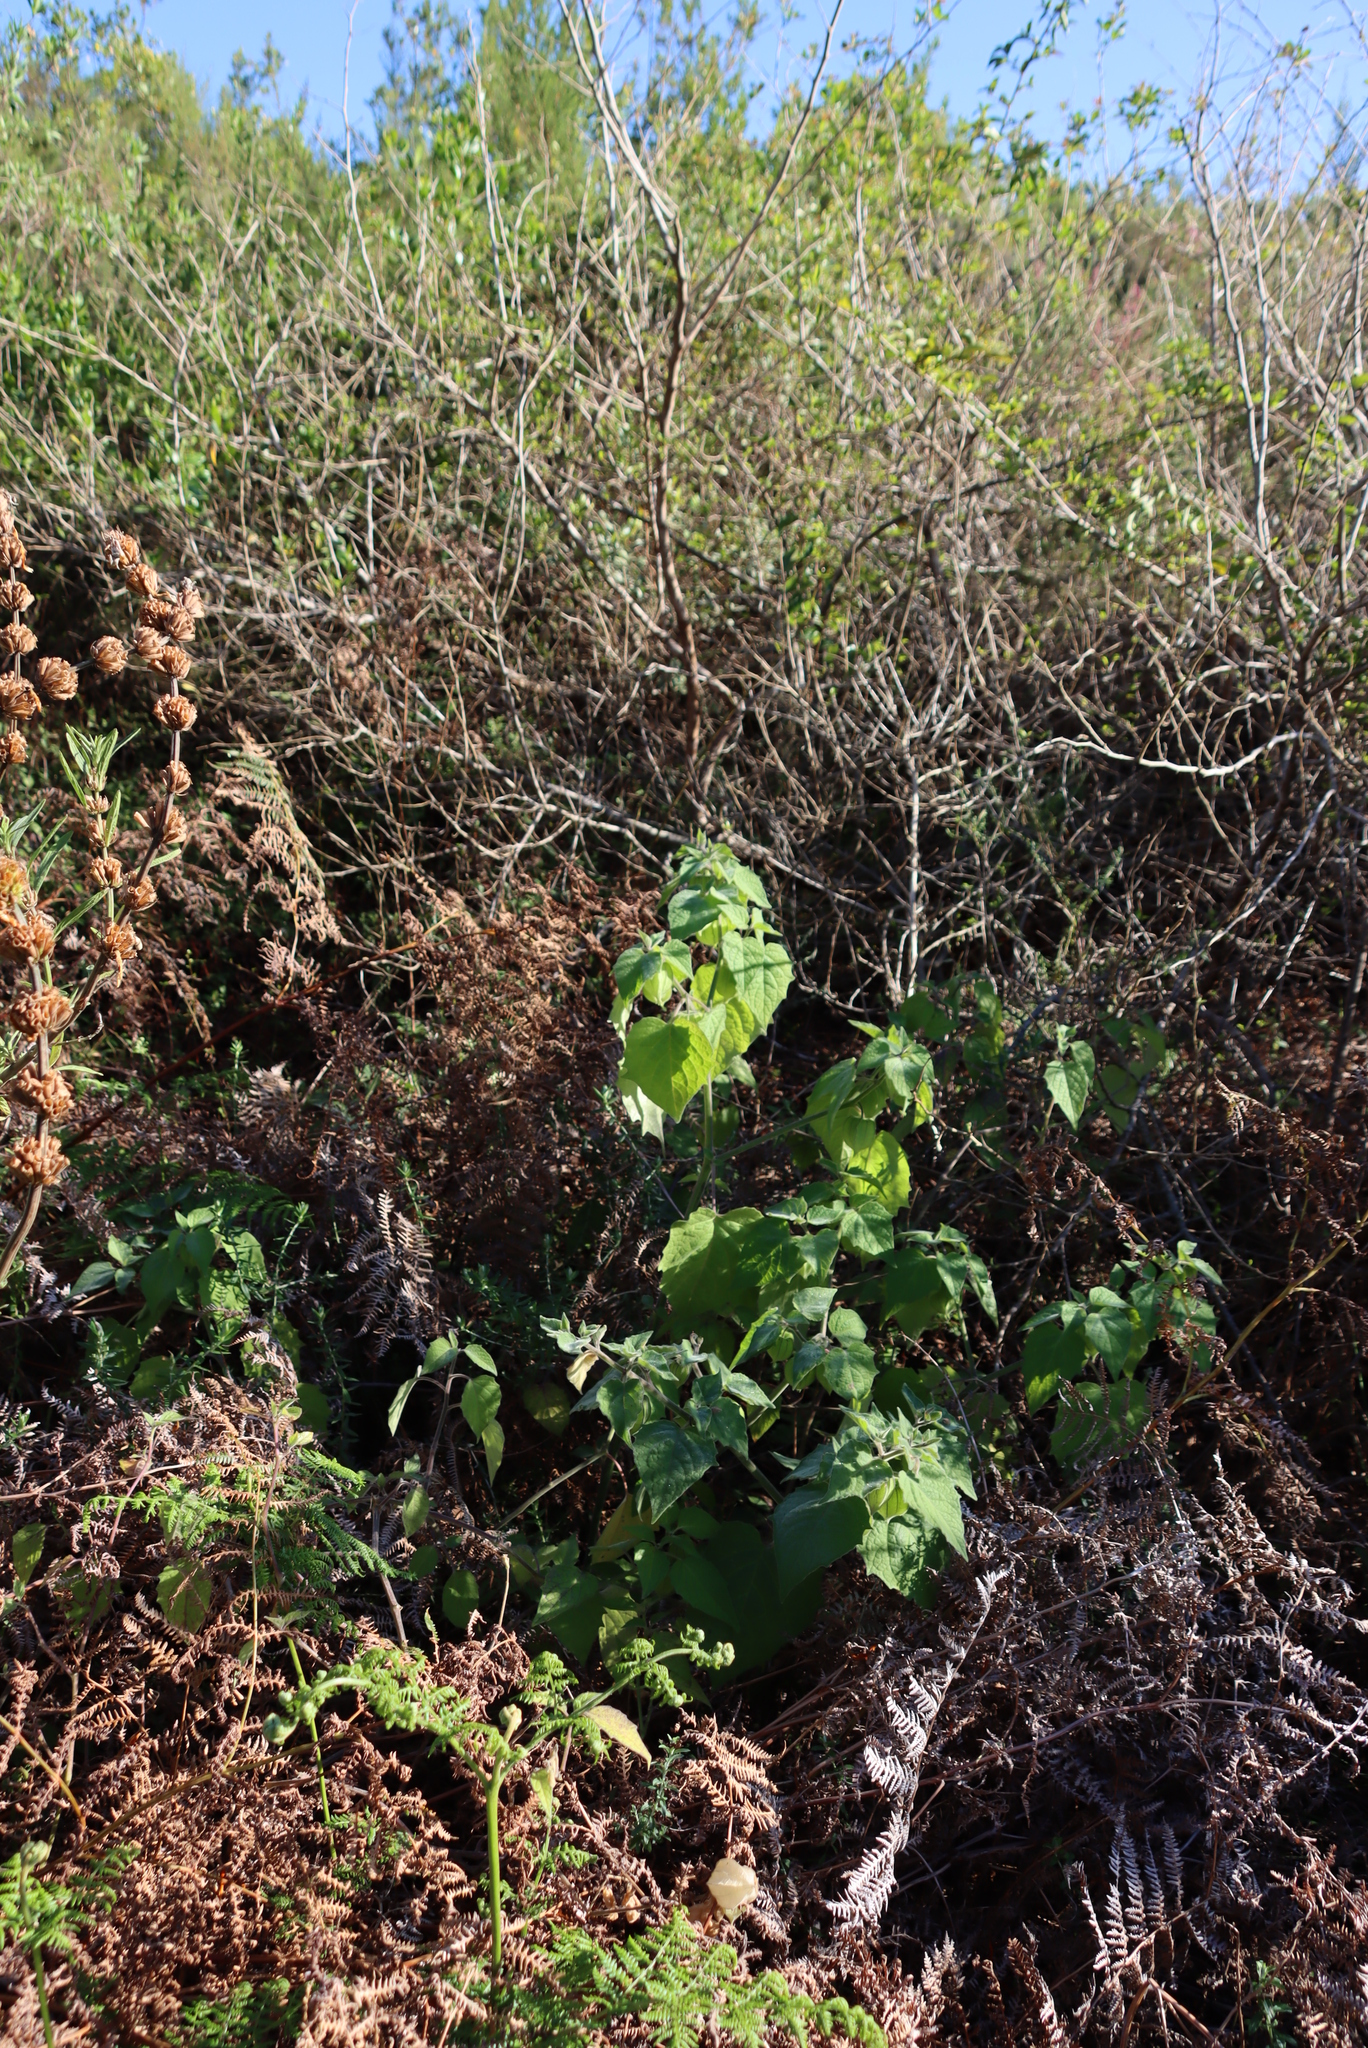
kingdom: Plantae
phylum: Tracheophyta
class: Magnoliopsida
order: Solanales
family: Solanaceae
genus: Physalis
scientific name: Physalis peruviana
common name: Cape-gooseberry
